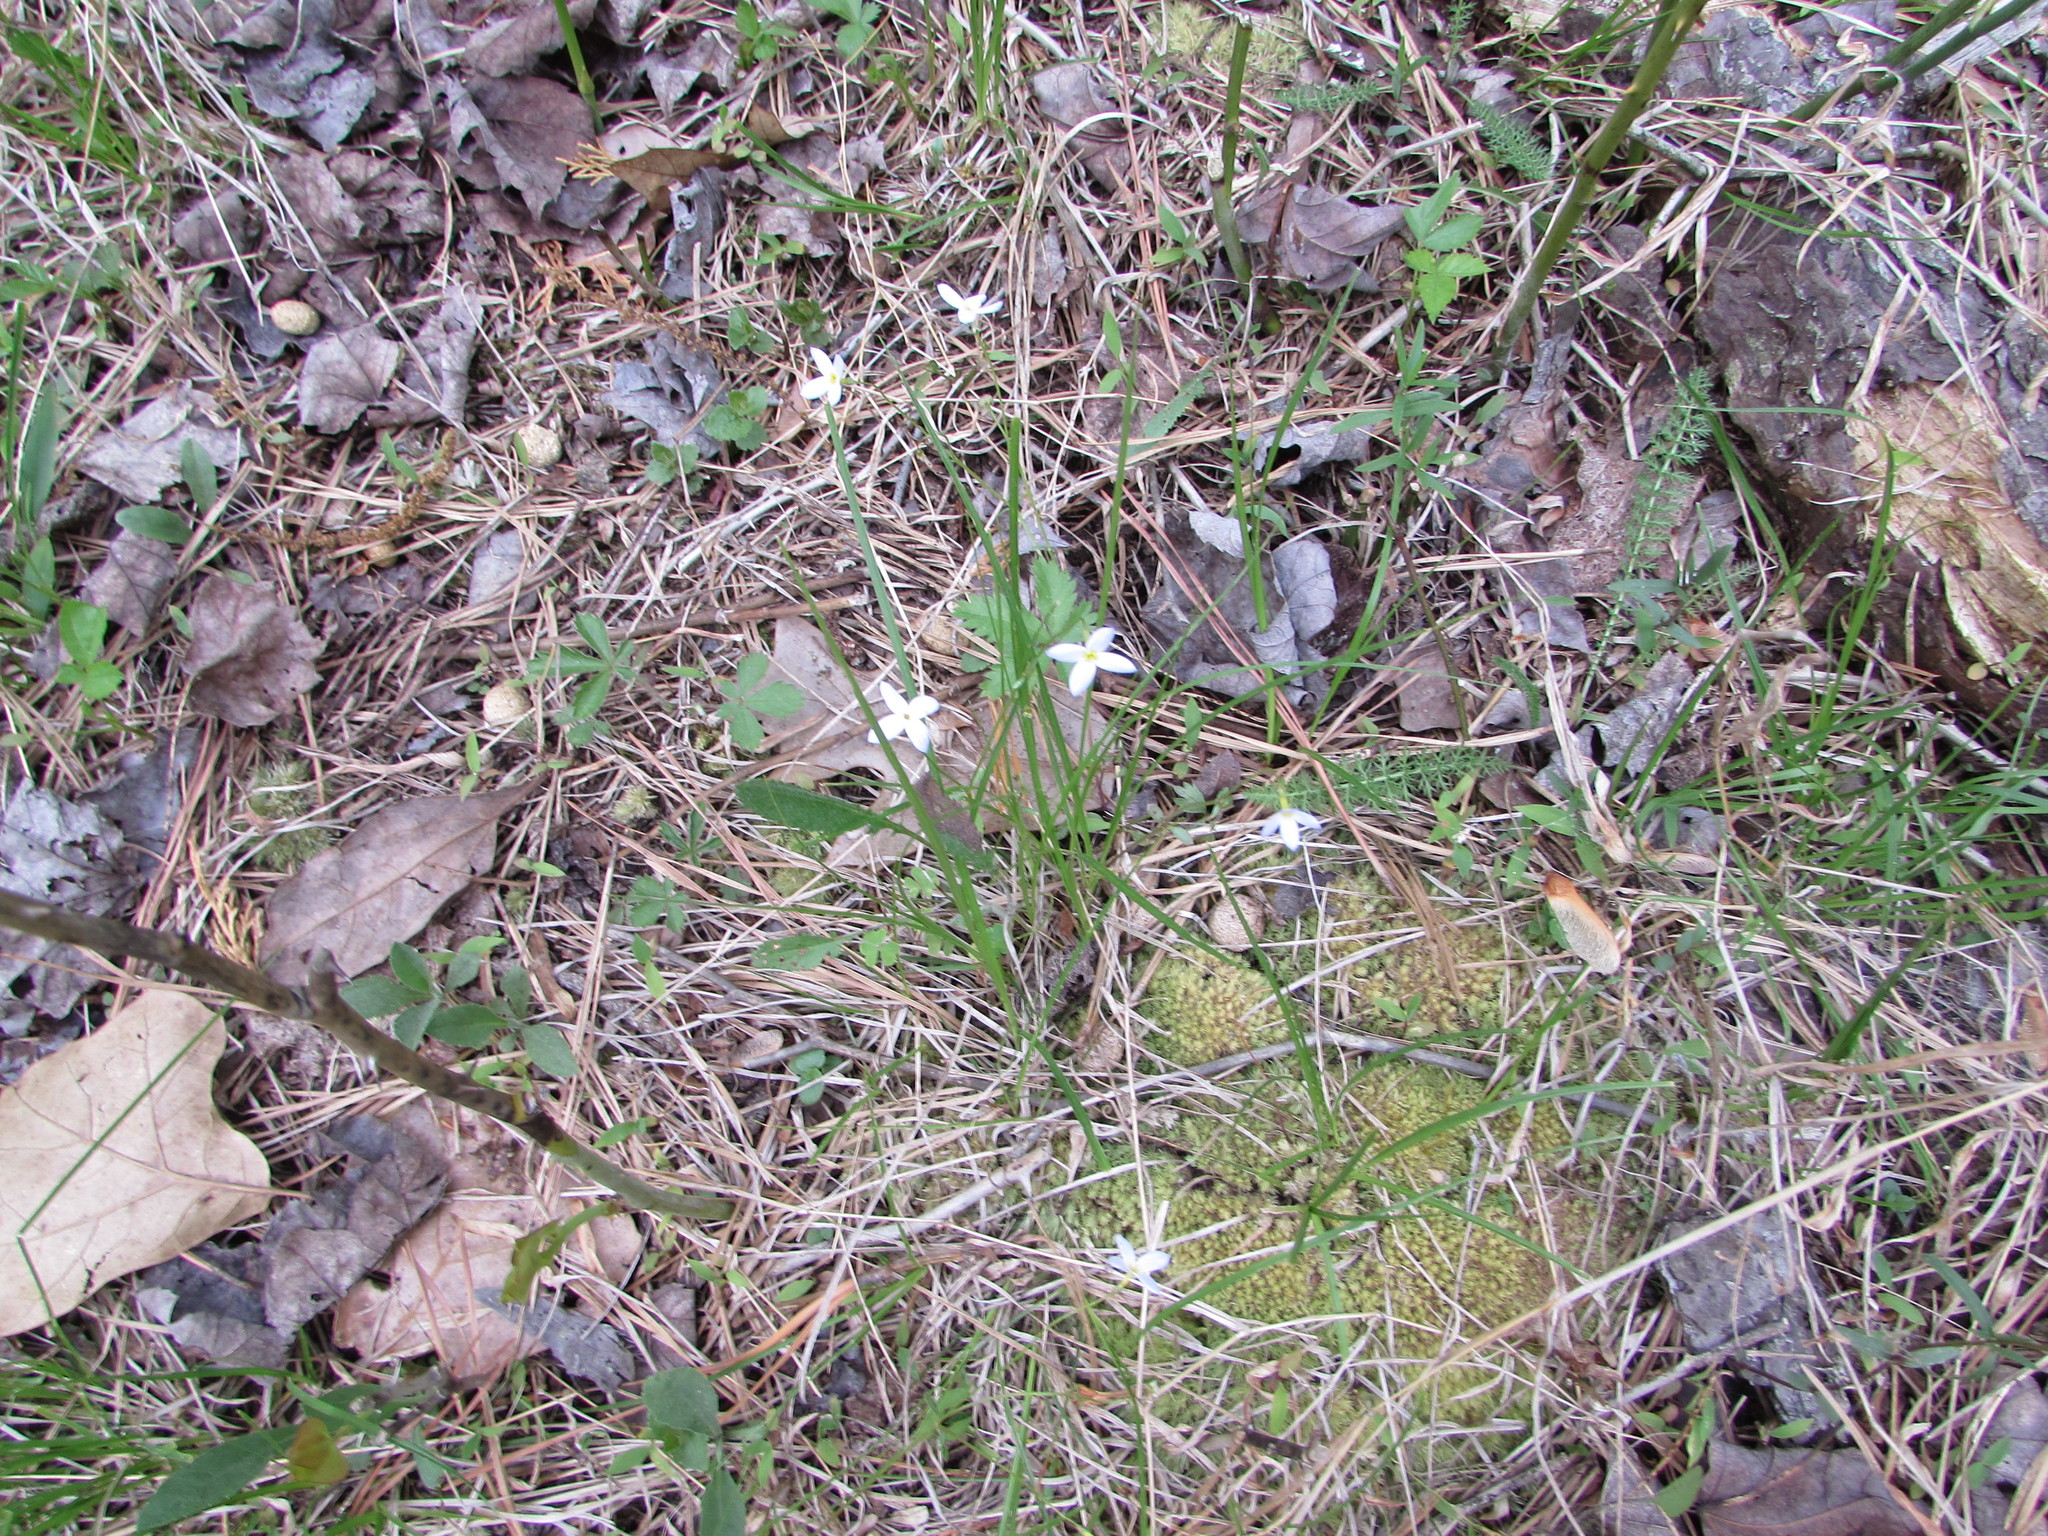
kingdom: Plantae
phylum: Tracheophyta
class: Magnoliopsida
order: Gentianales
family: Rubiaceae
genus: Houstonia
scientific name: Houstonia caerulea
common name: Bluets
